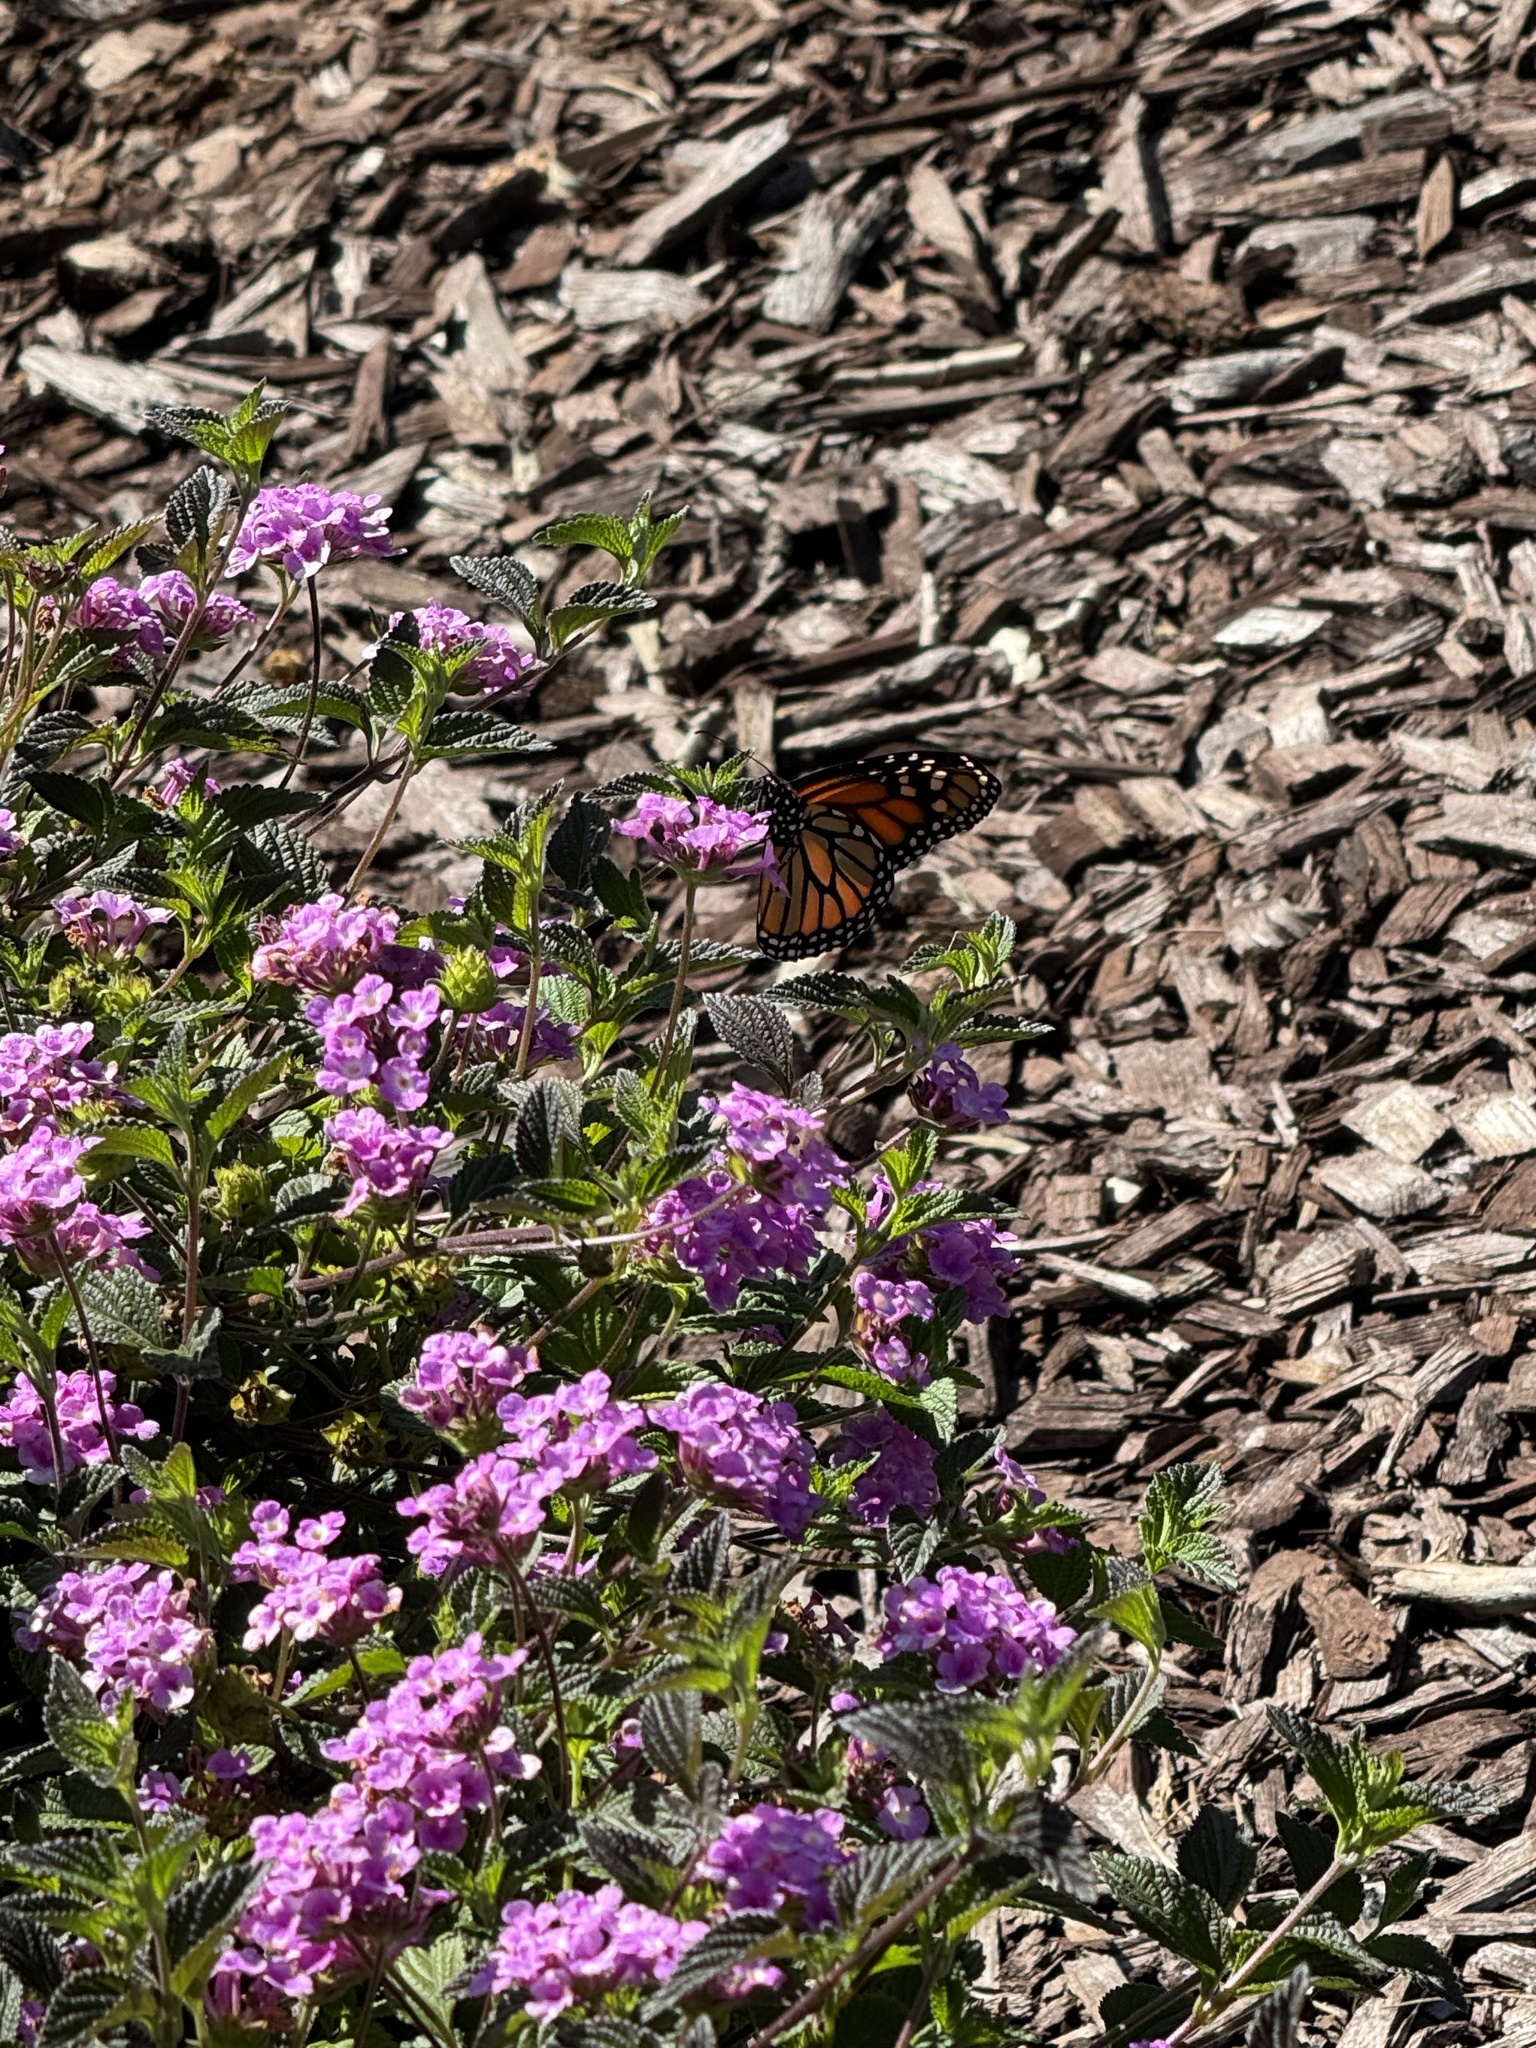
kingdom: Animalia
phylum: Arthropoda
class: Insecta
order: Lepidoptera
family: Nymphalidae
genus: Danaus
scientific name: Danaus plexippus
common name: Monarch
